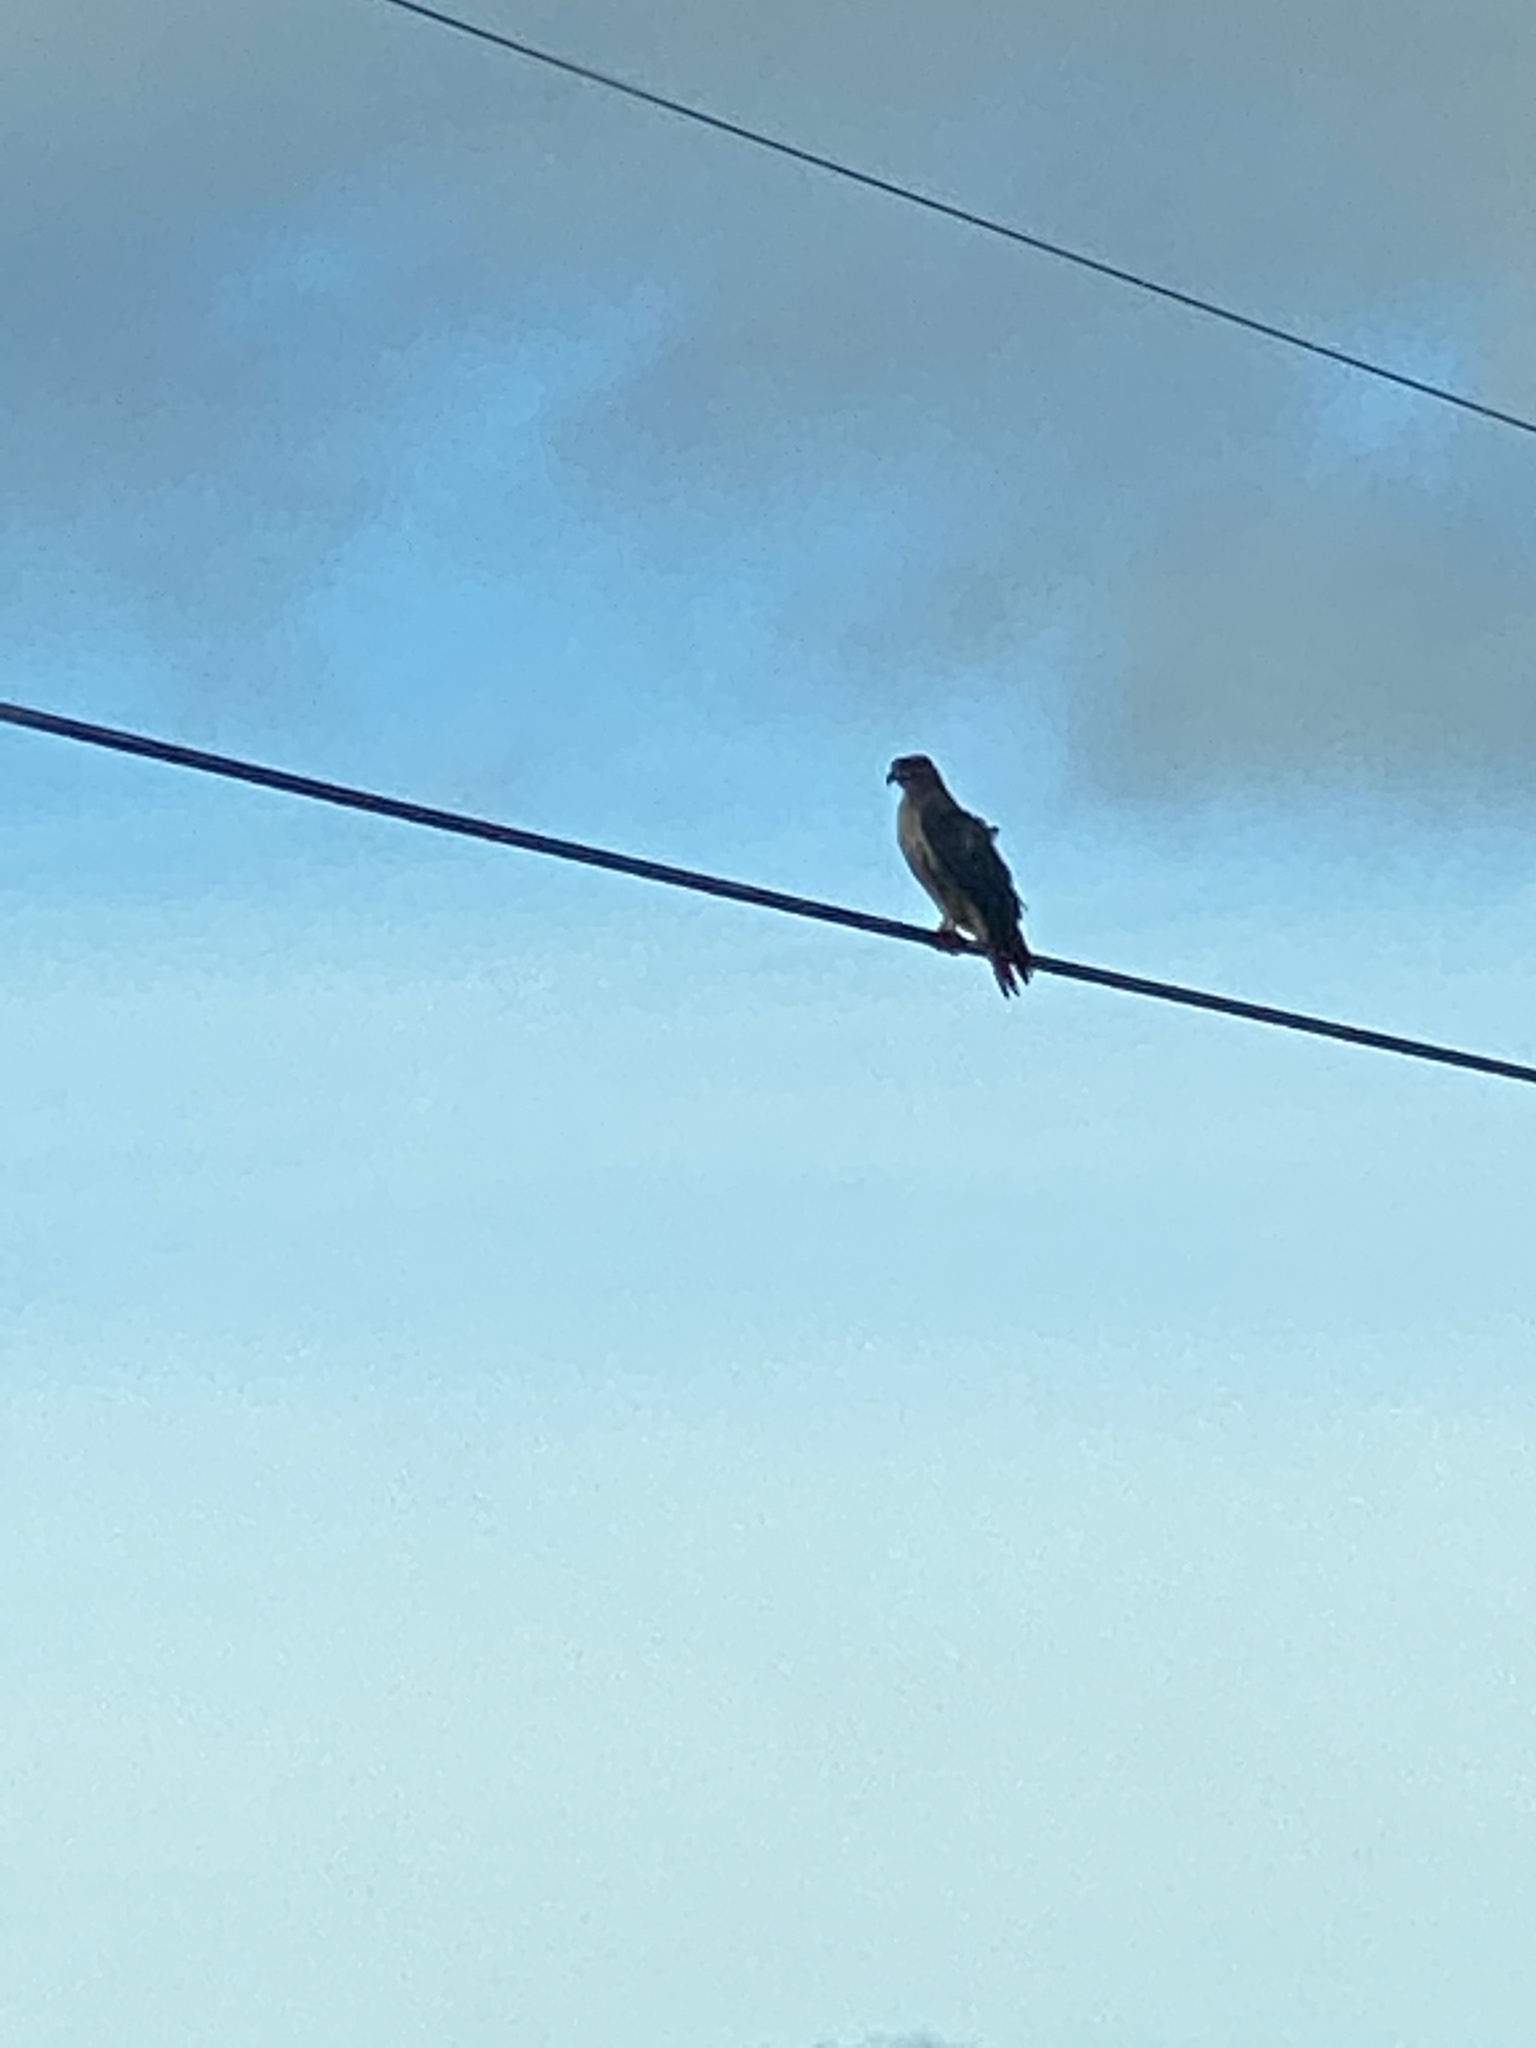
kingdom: Animalia
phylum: Chordata
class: Aves
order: Accipitriformes
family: Accipitridae
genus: Buteo
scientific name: Buteo jamaicensis
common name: Red-tailed hawk
